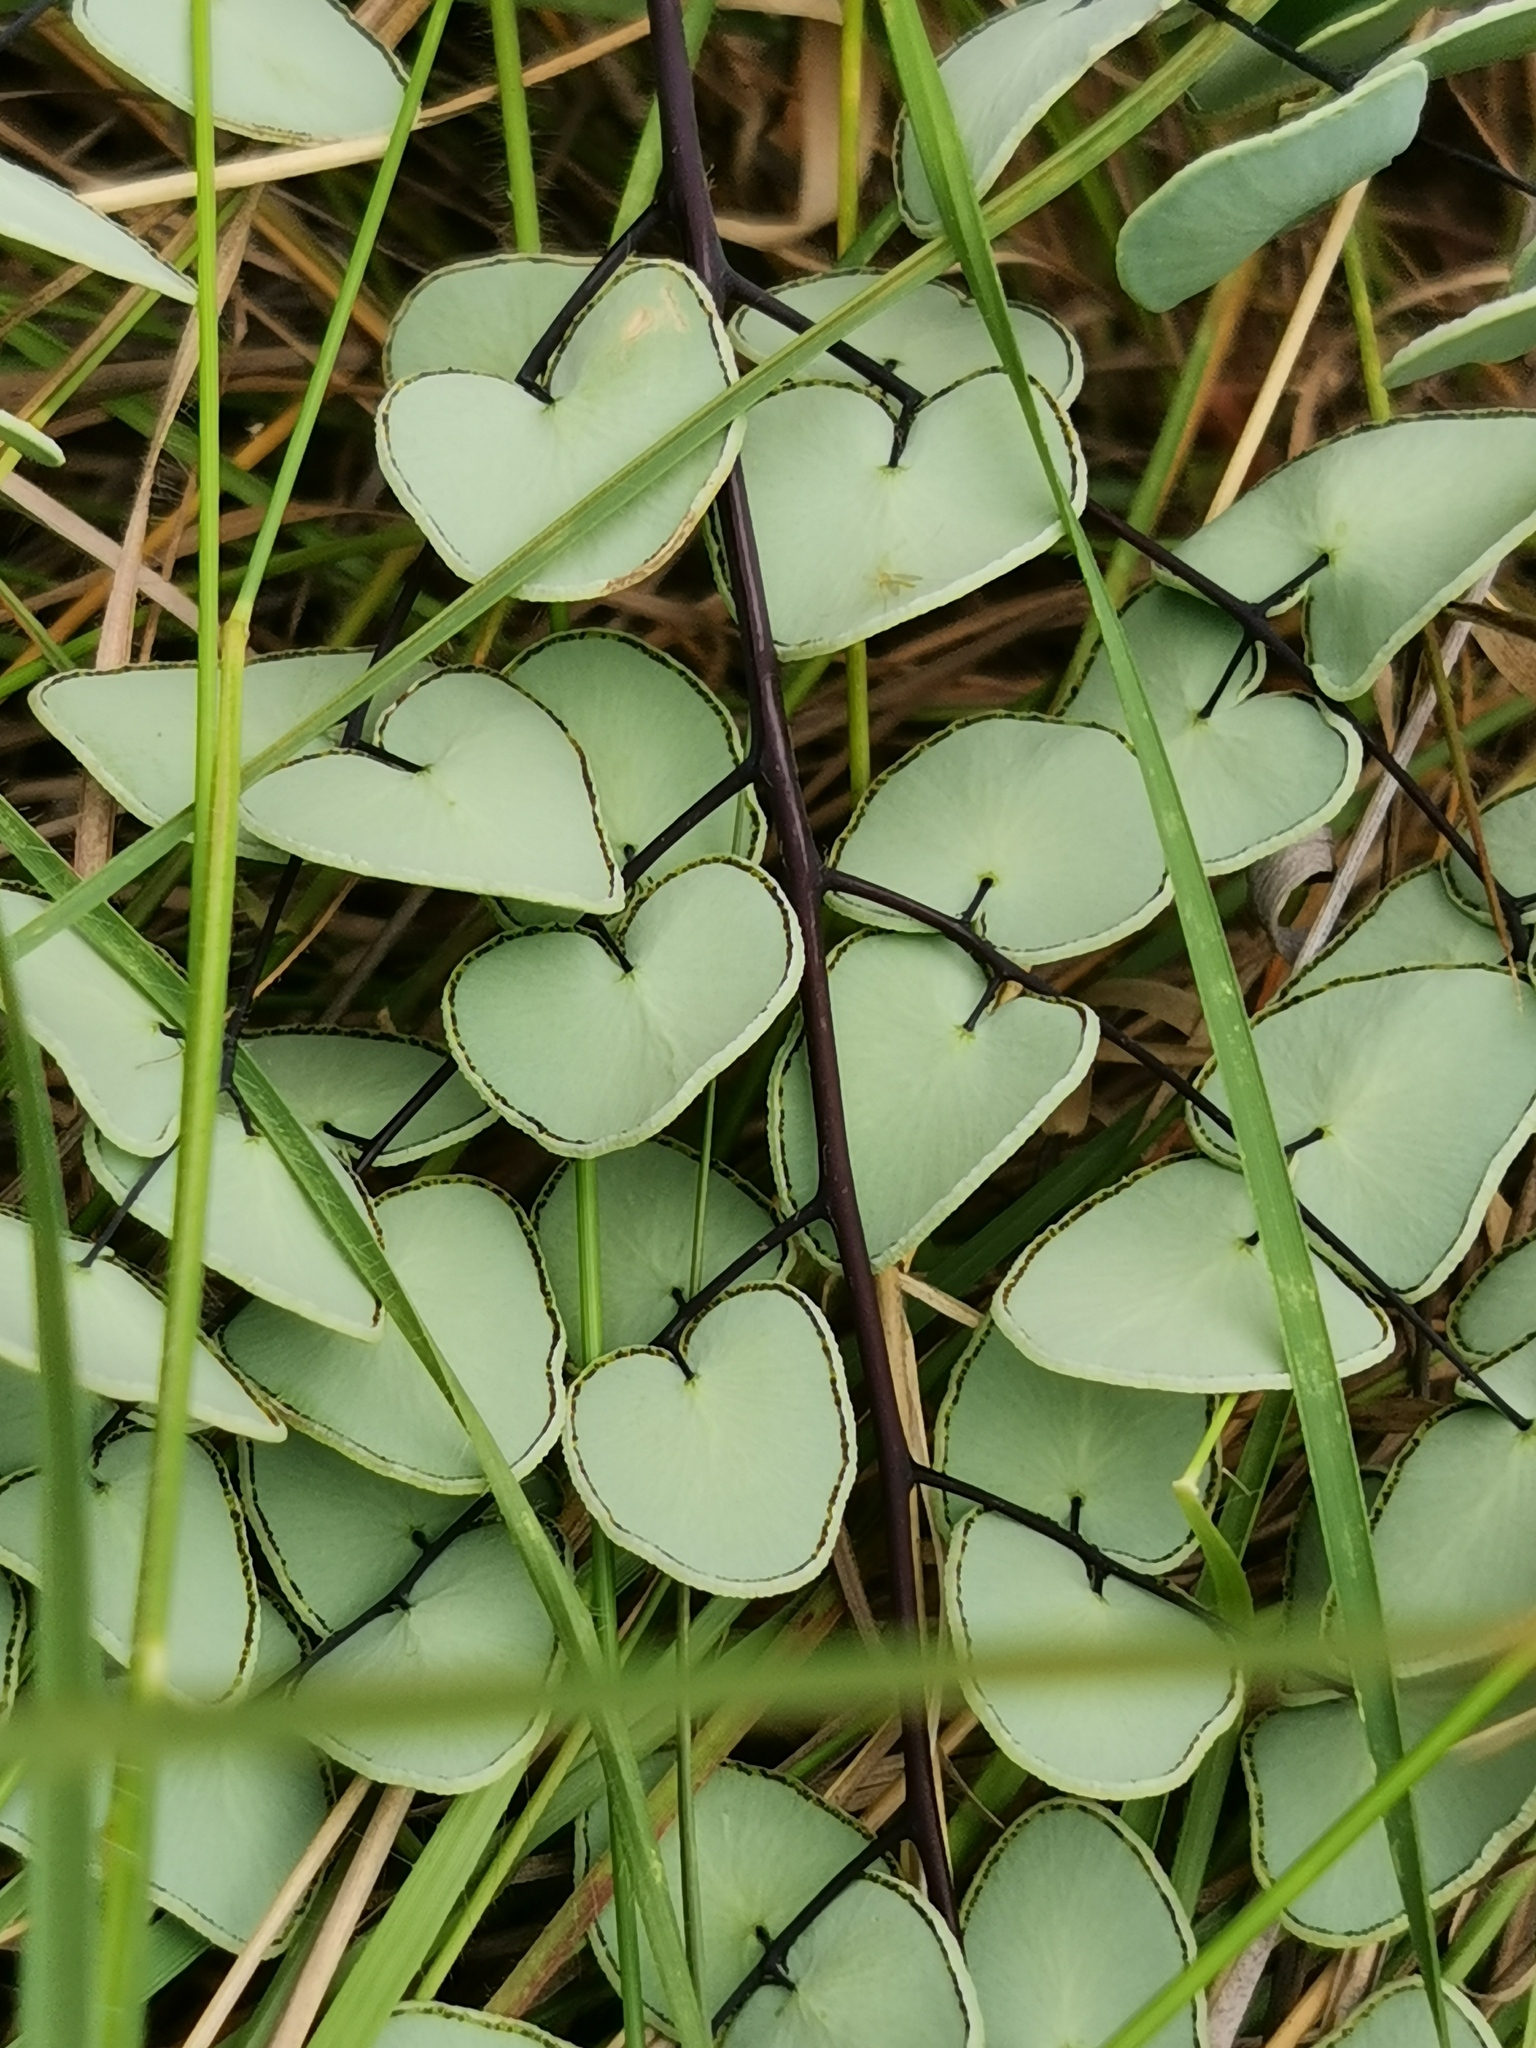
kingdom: Plantae
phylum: Tracheophyta
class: Polypodiopsida
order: Polypodiales
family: Pteridaceae
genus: Pellaea
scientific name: Pellaea calomelanos
